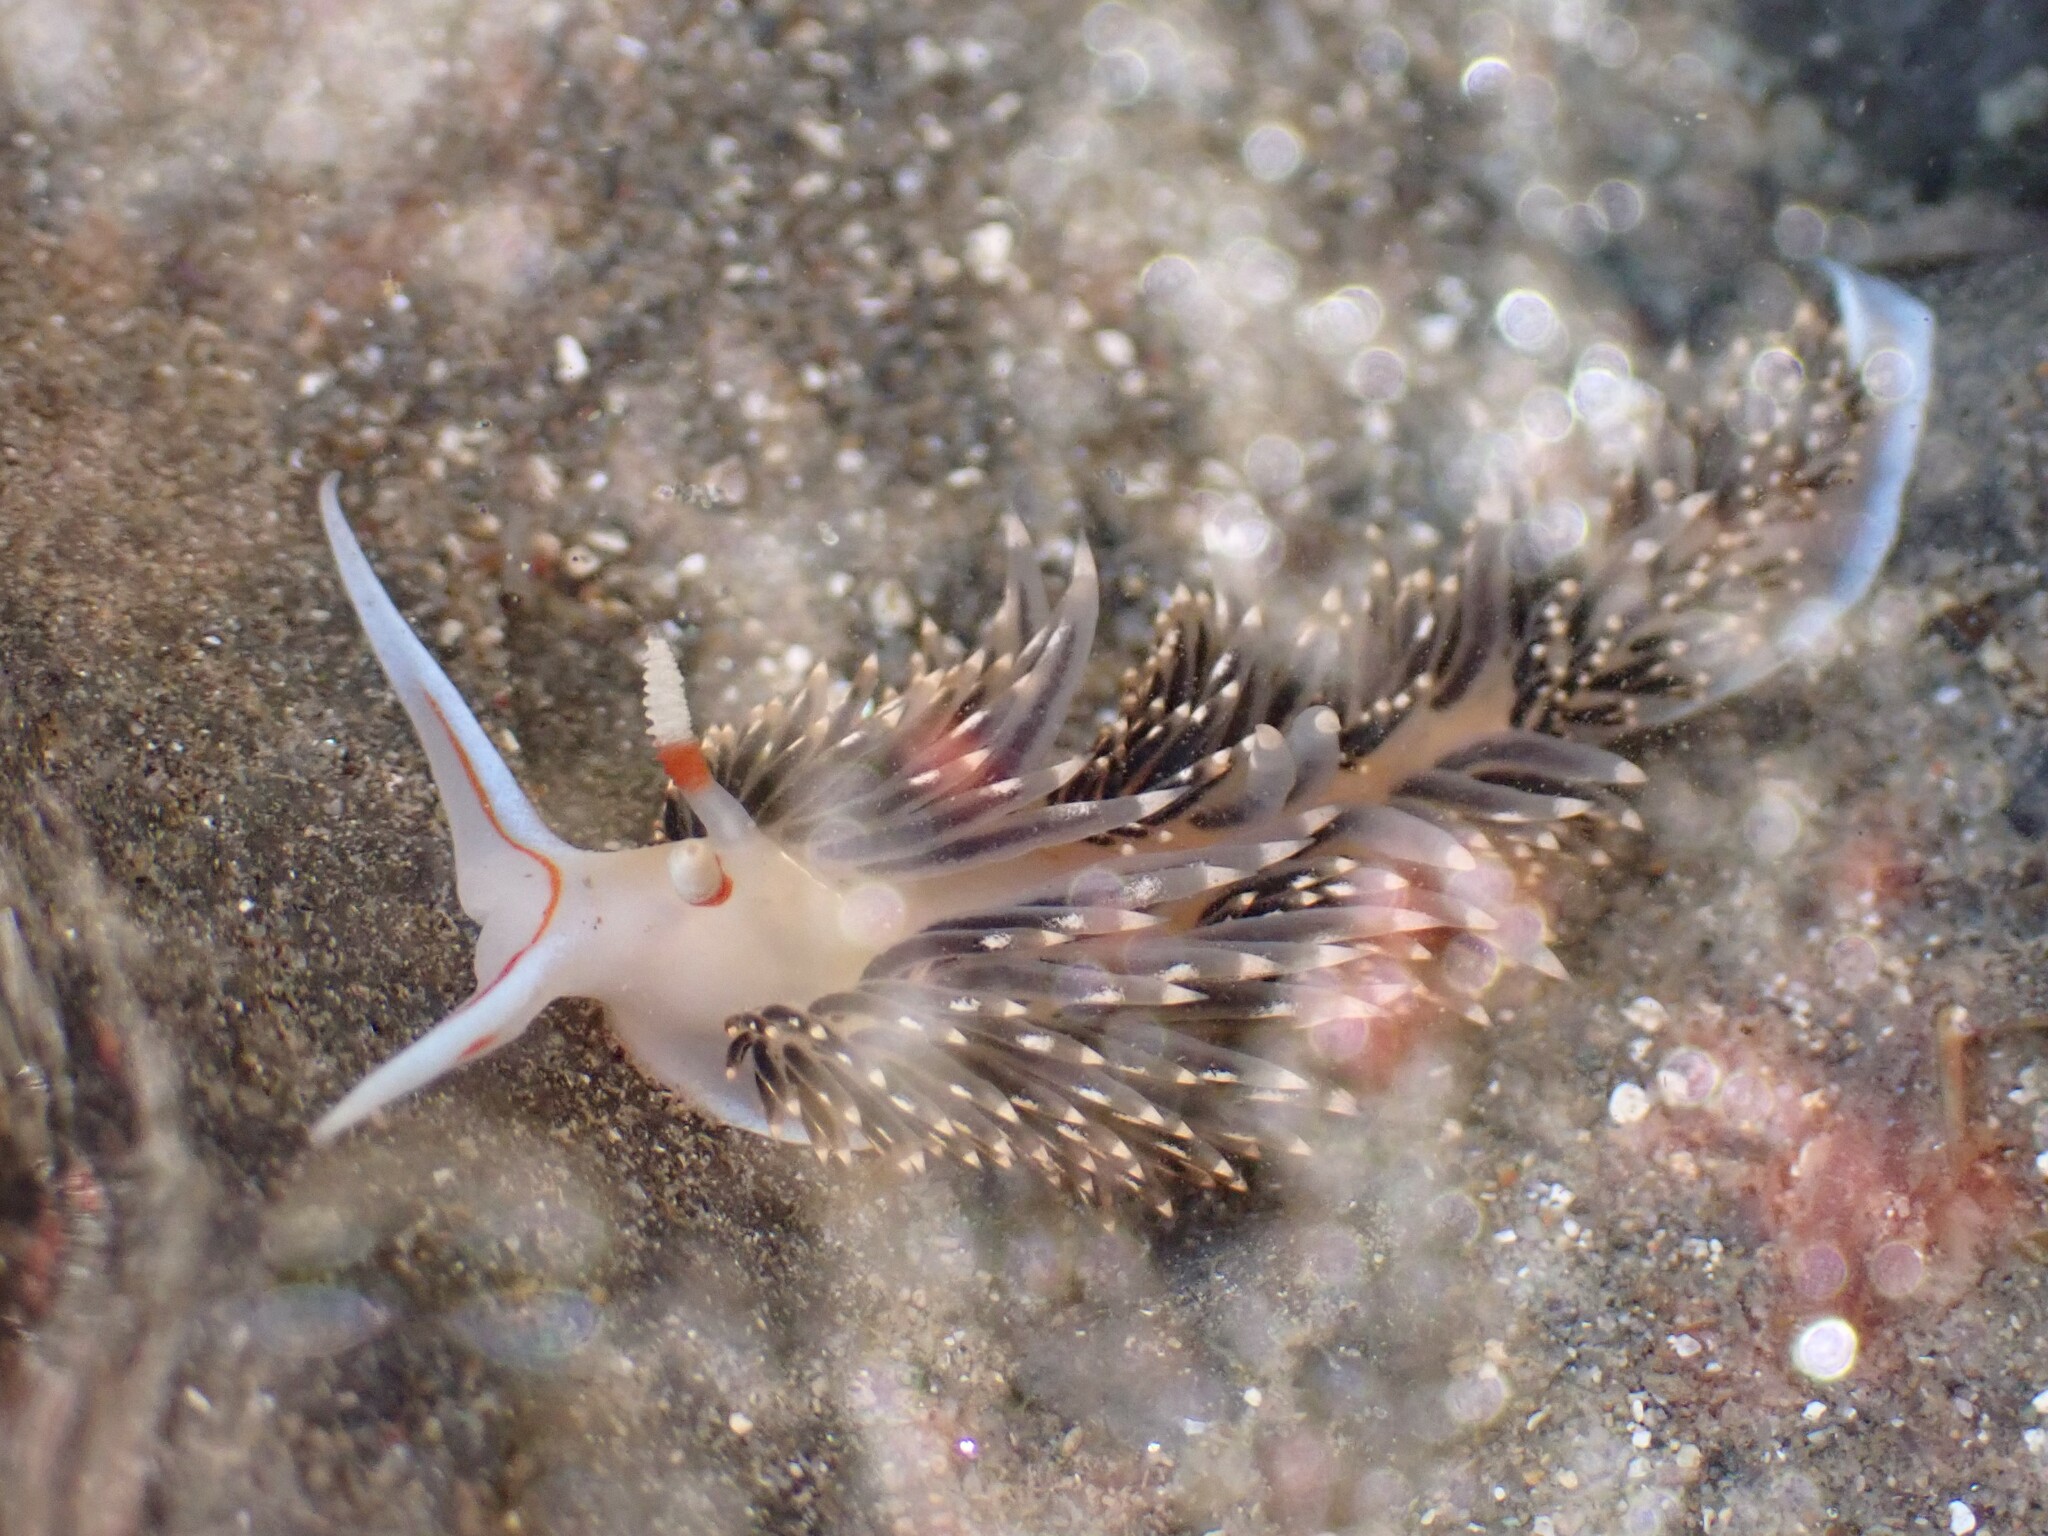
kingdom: Animalia
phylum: Mollusca
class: Gastropoda
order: Nudibranchia
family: Facelinidae
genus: Phidiana
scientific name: Phidiana hiltoni
